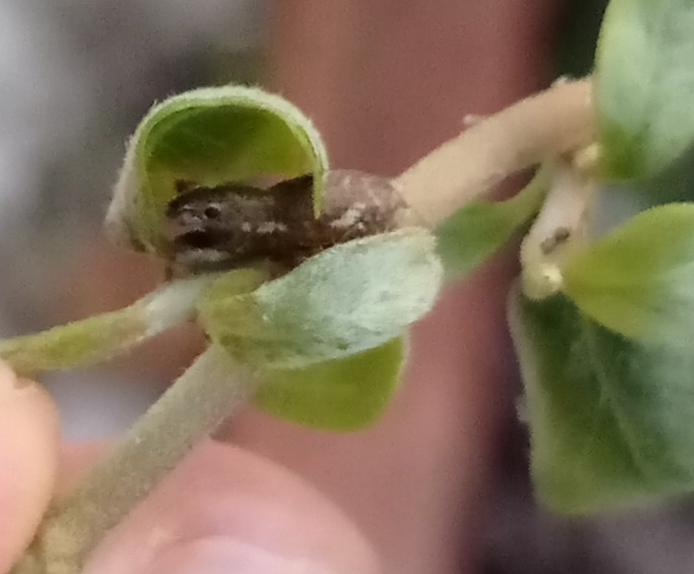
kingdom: Animalia
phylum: Arthropoda
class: Insecta
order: Coleoptera
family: Curculionidae
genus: Naupactus
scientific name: Naupactus cervinus
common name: Fuller rose beetle
